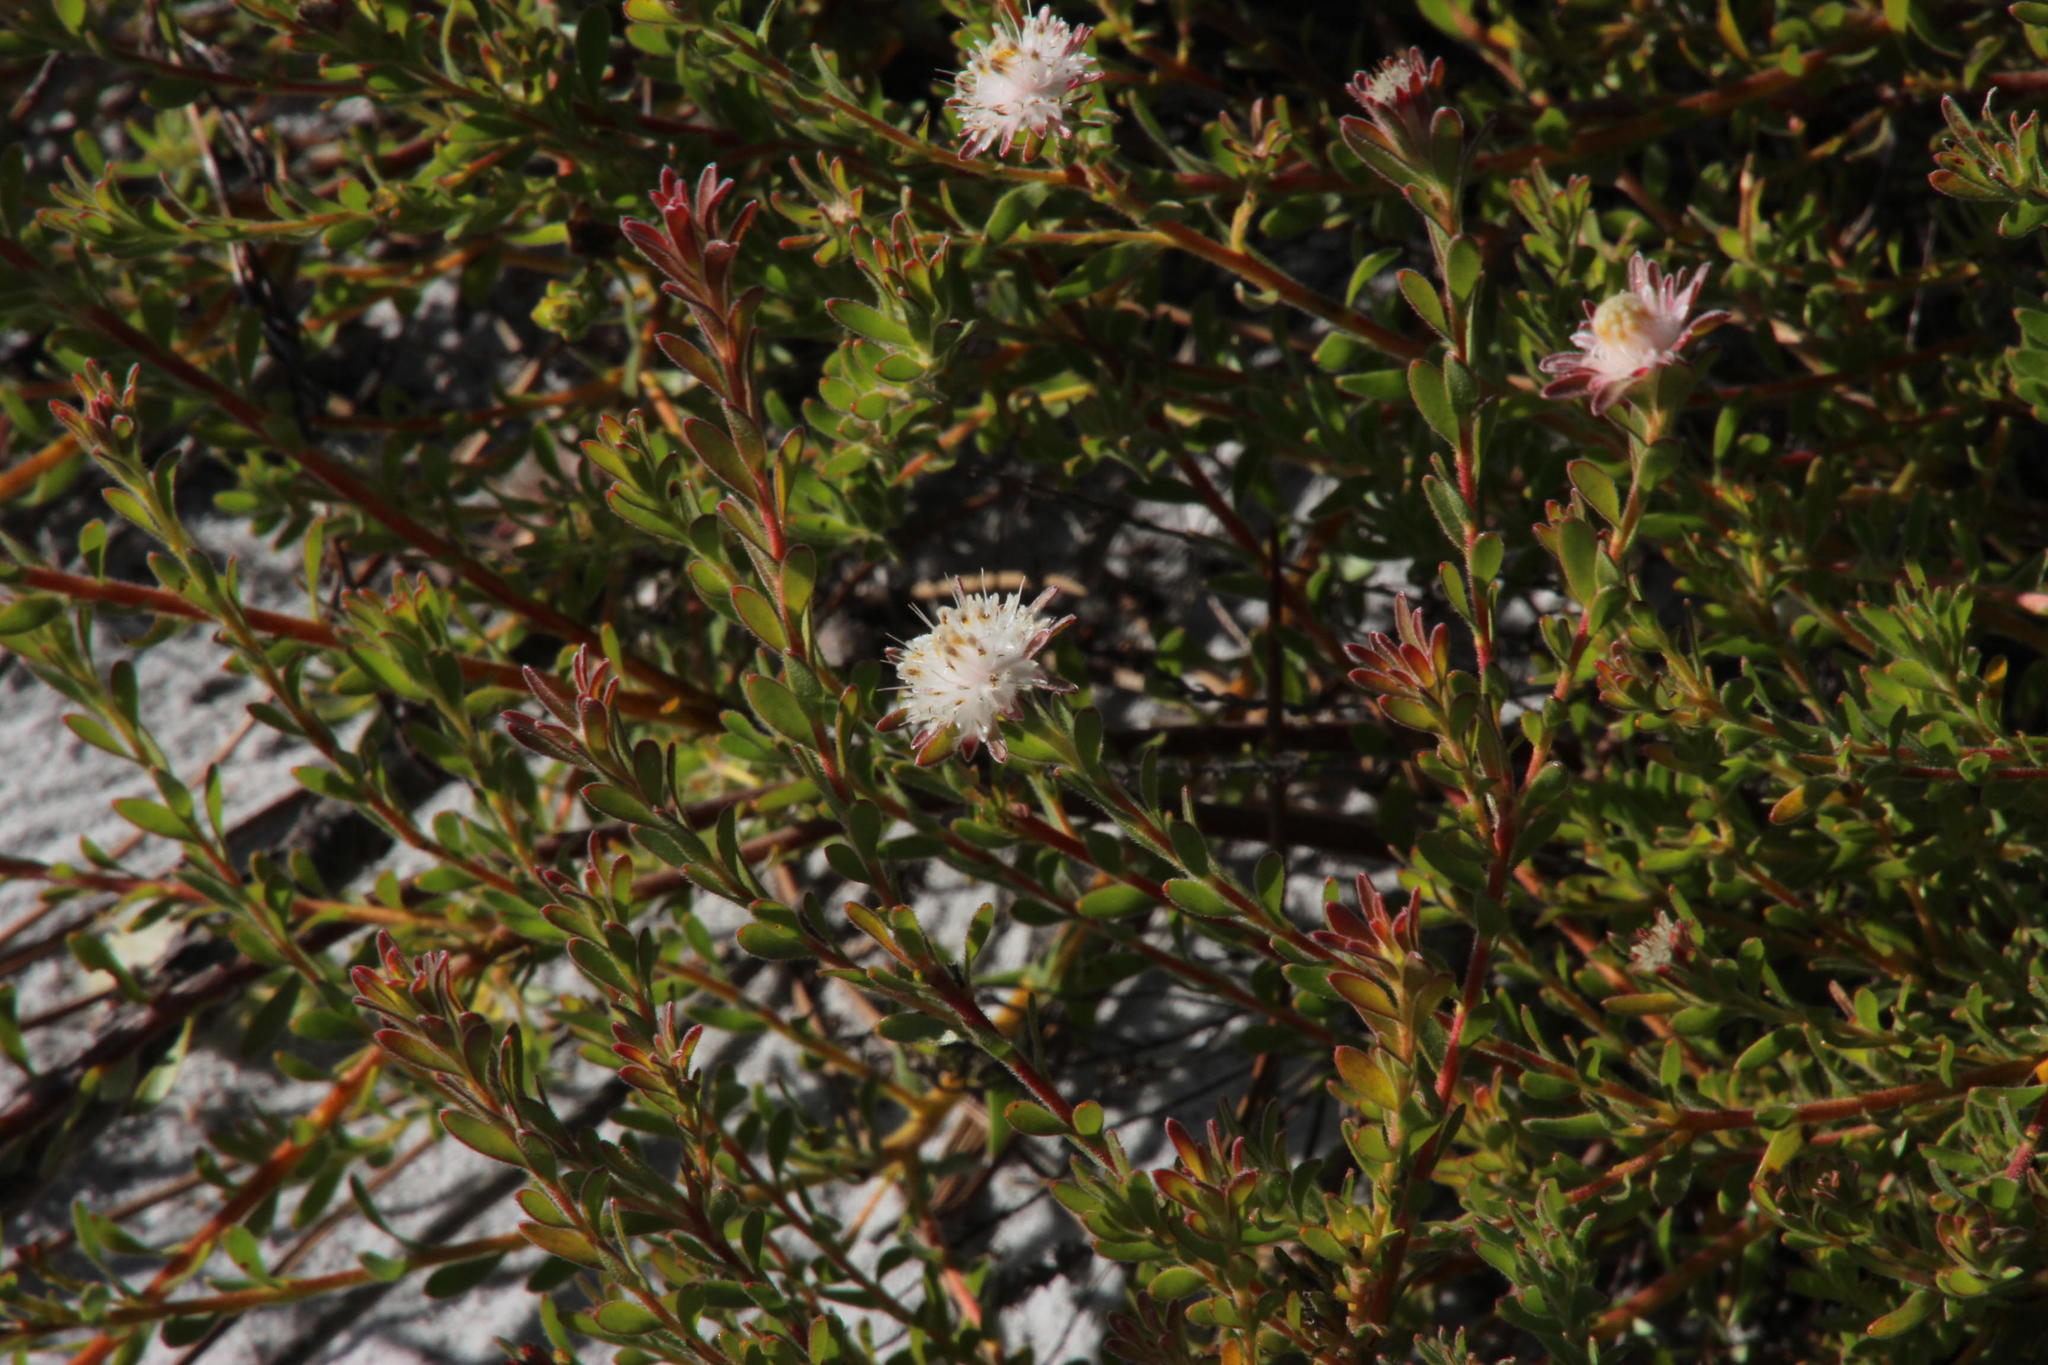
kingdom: Plantae
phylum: Tracheophyta
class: Magnoliopsida
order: Proteales
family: Proteaceae
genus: Diastella
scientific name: Diastella divaricata
